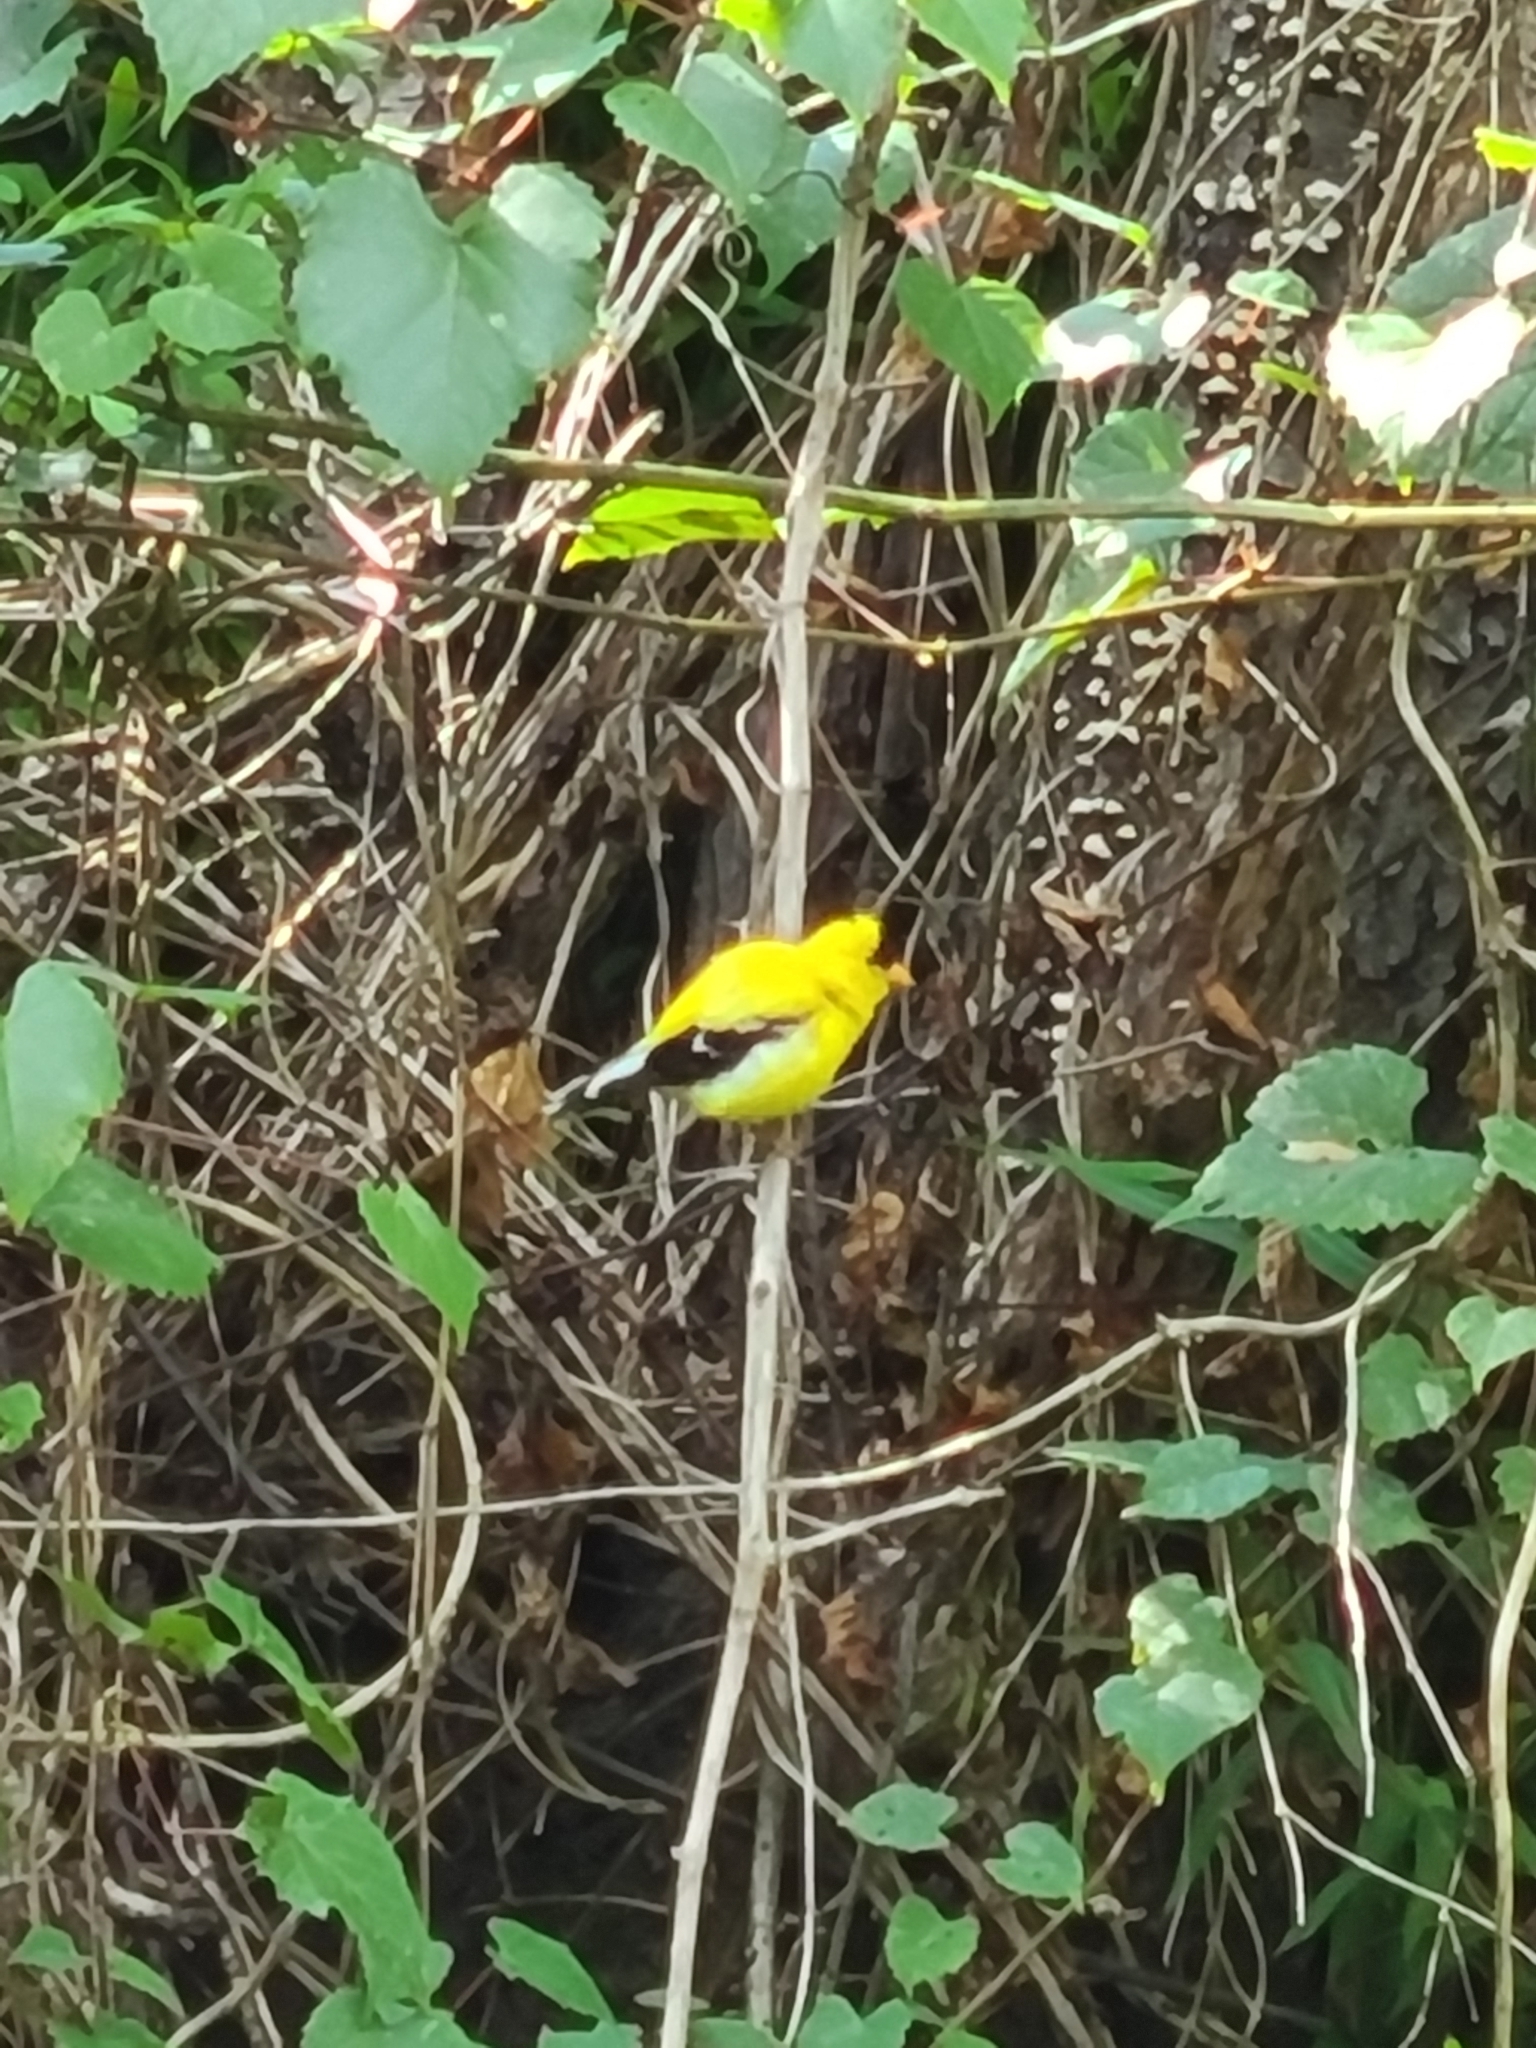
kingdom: Animalia
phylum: Chordata
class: Aves
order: Passeriformes
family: Fringillidae
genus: Spinus
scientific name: Spinus tristis
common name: American goldfinch
